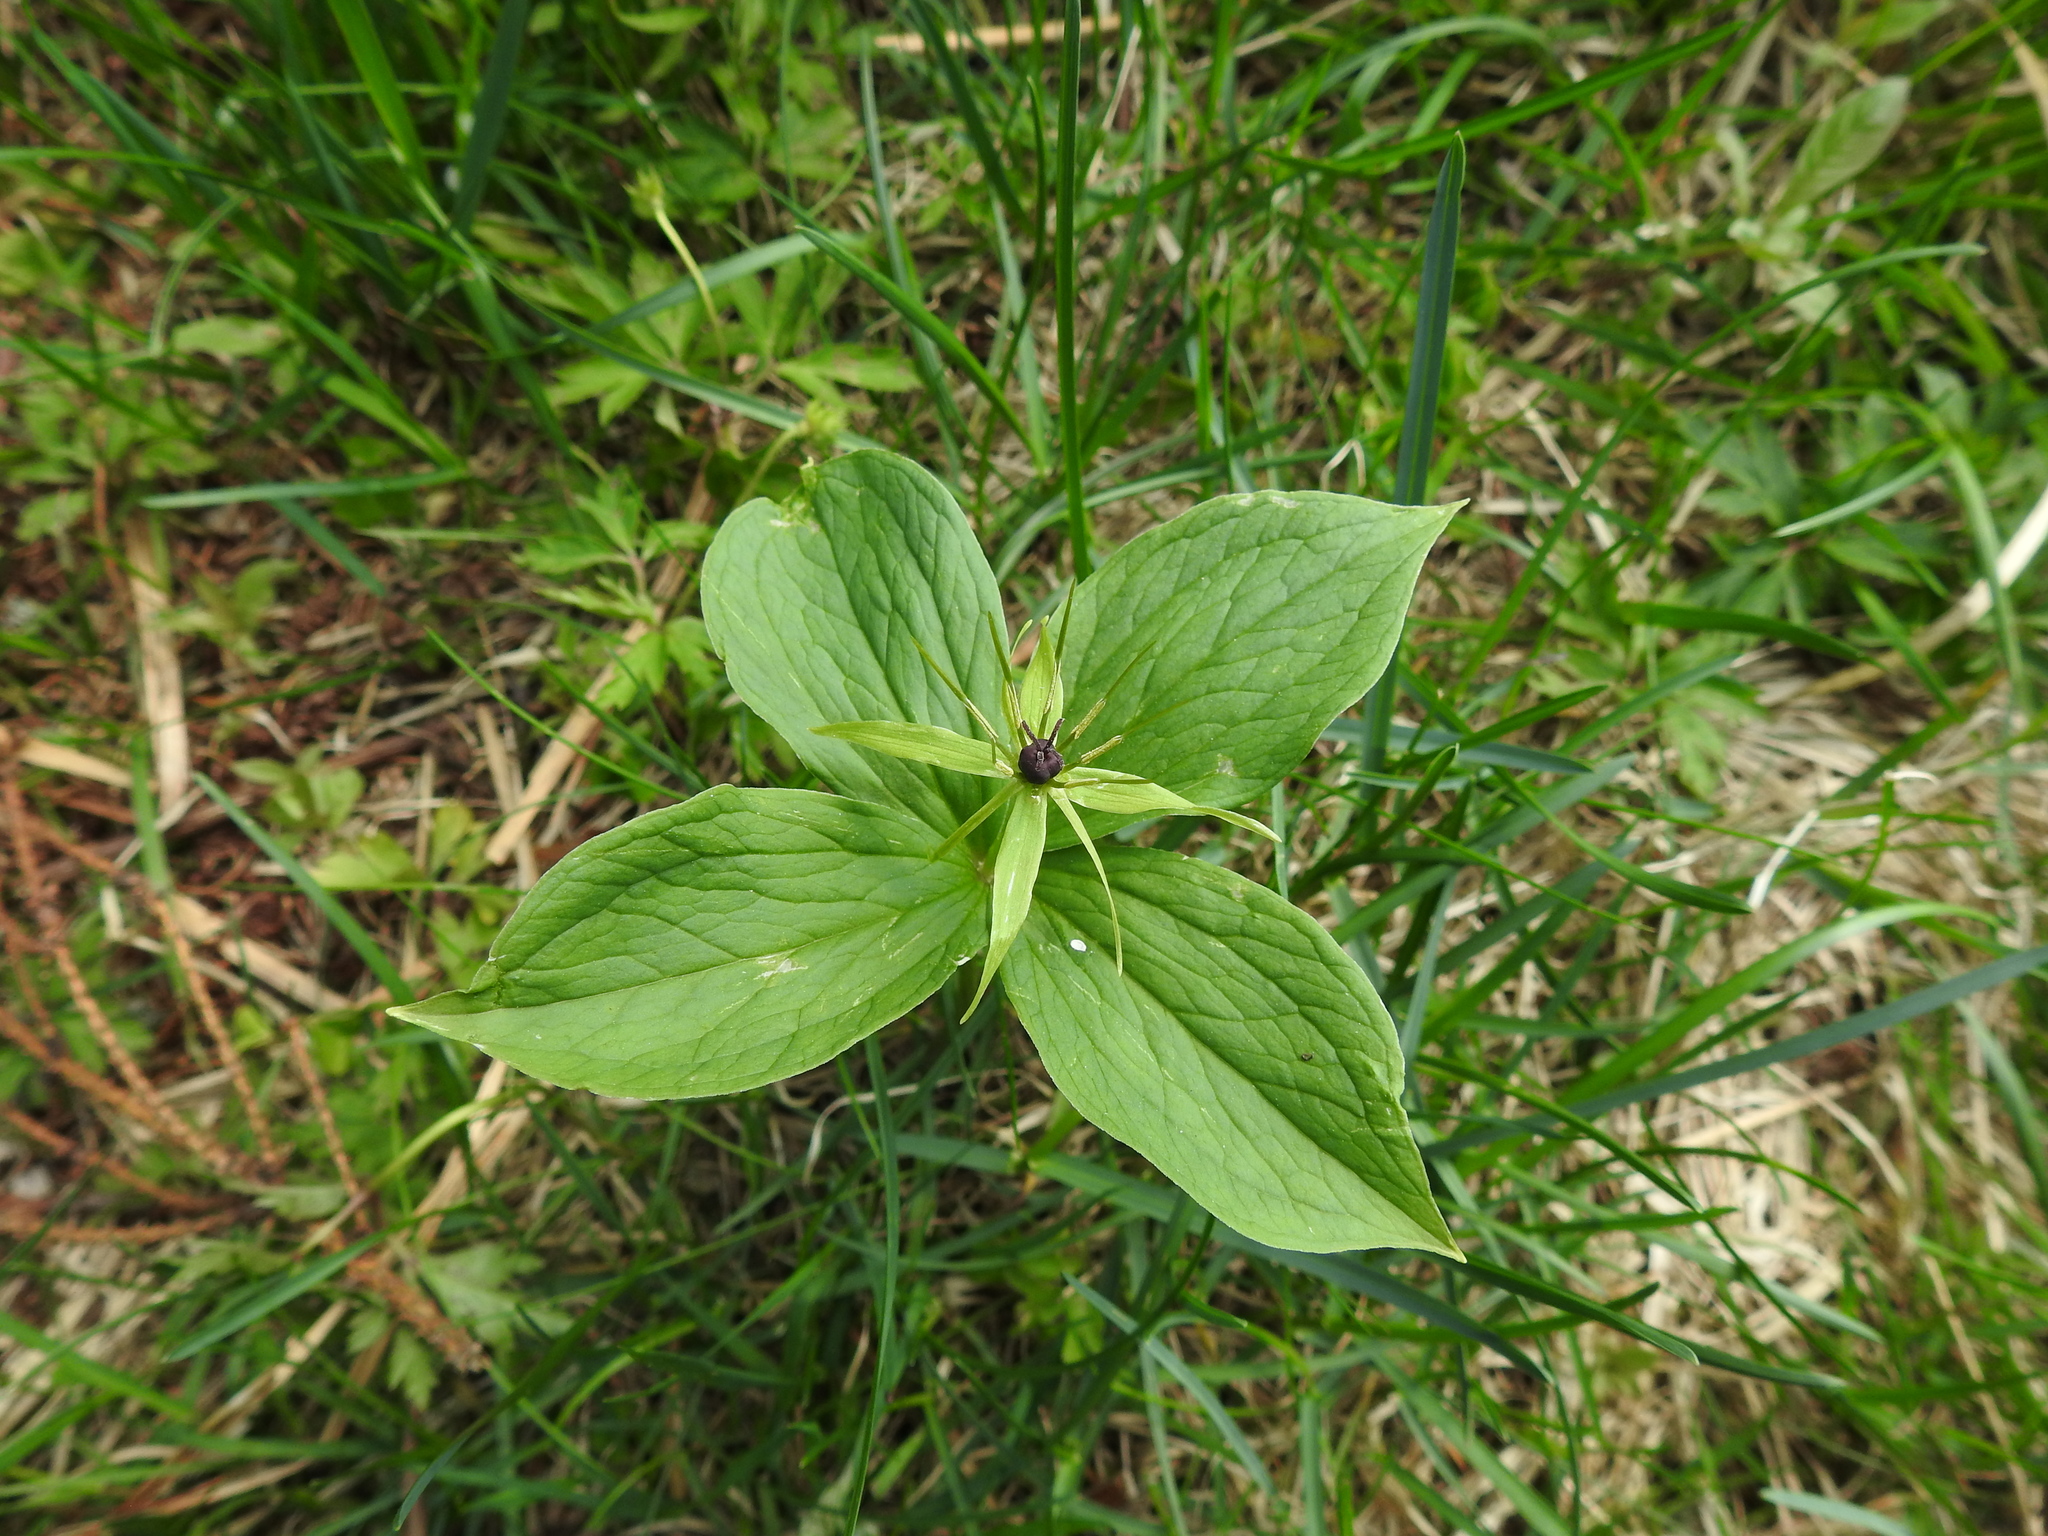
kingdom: Plantae
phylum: Tracheophyta
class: Liliopsida
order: Liliales
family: Melanthiaceae
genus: Paris
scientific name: Paris quadrifolia
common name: Herb-paris
